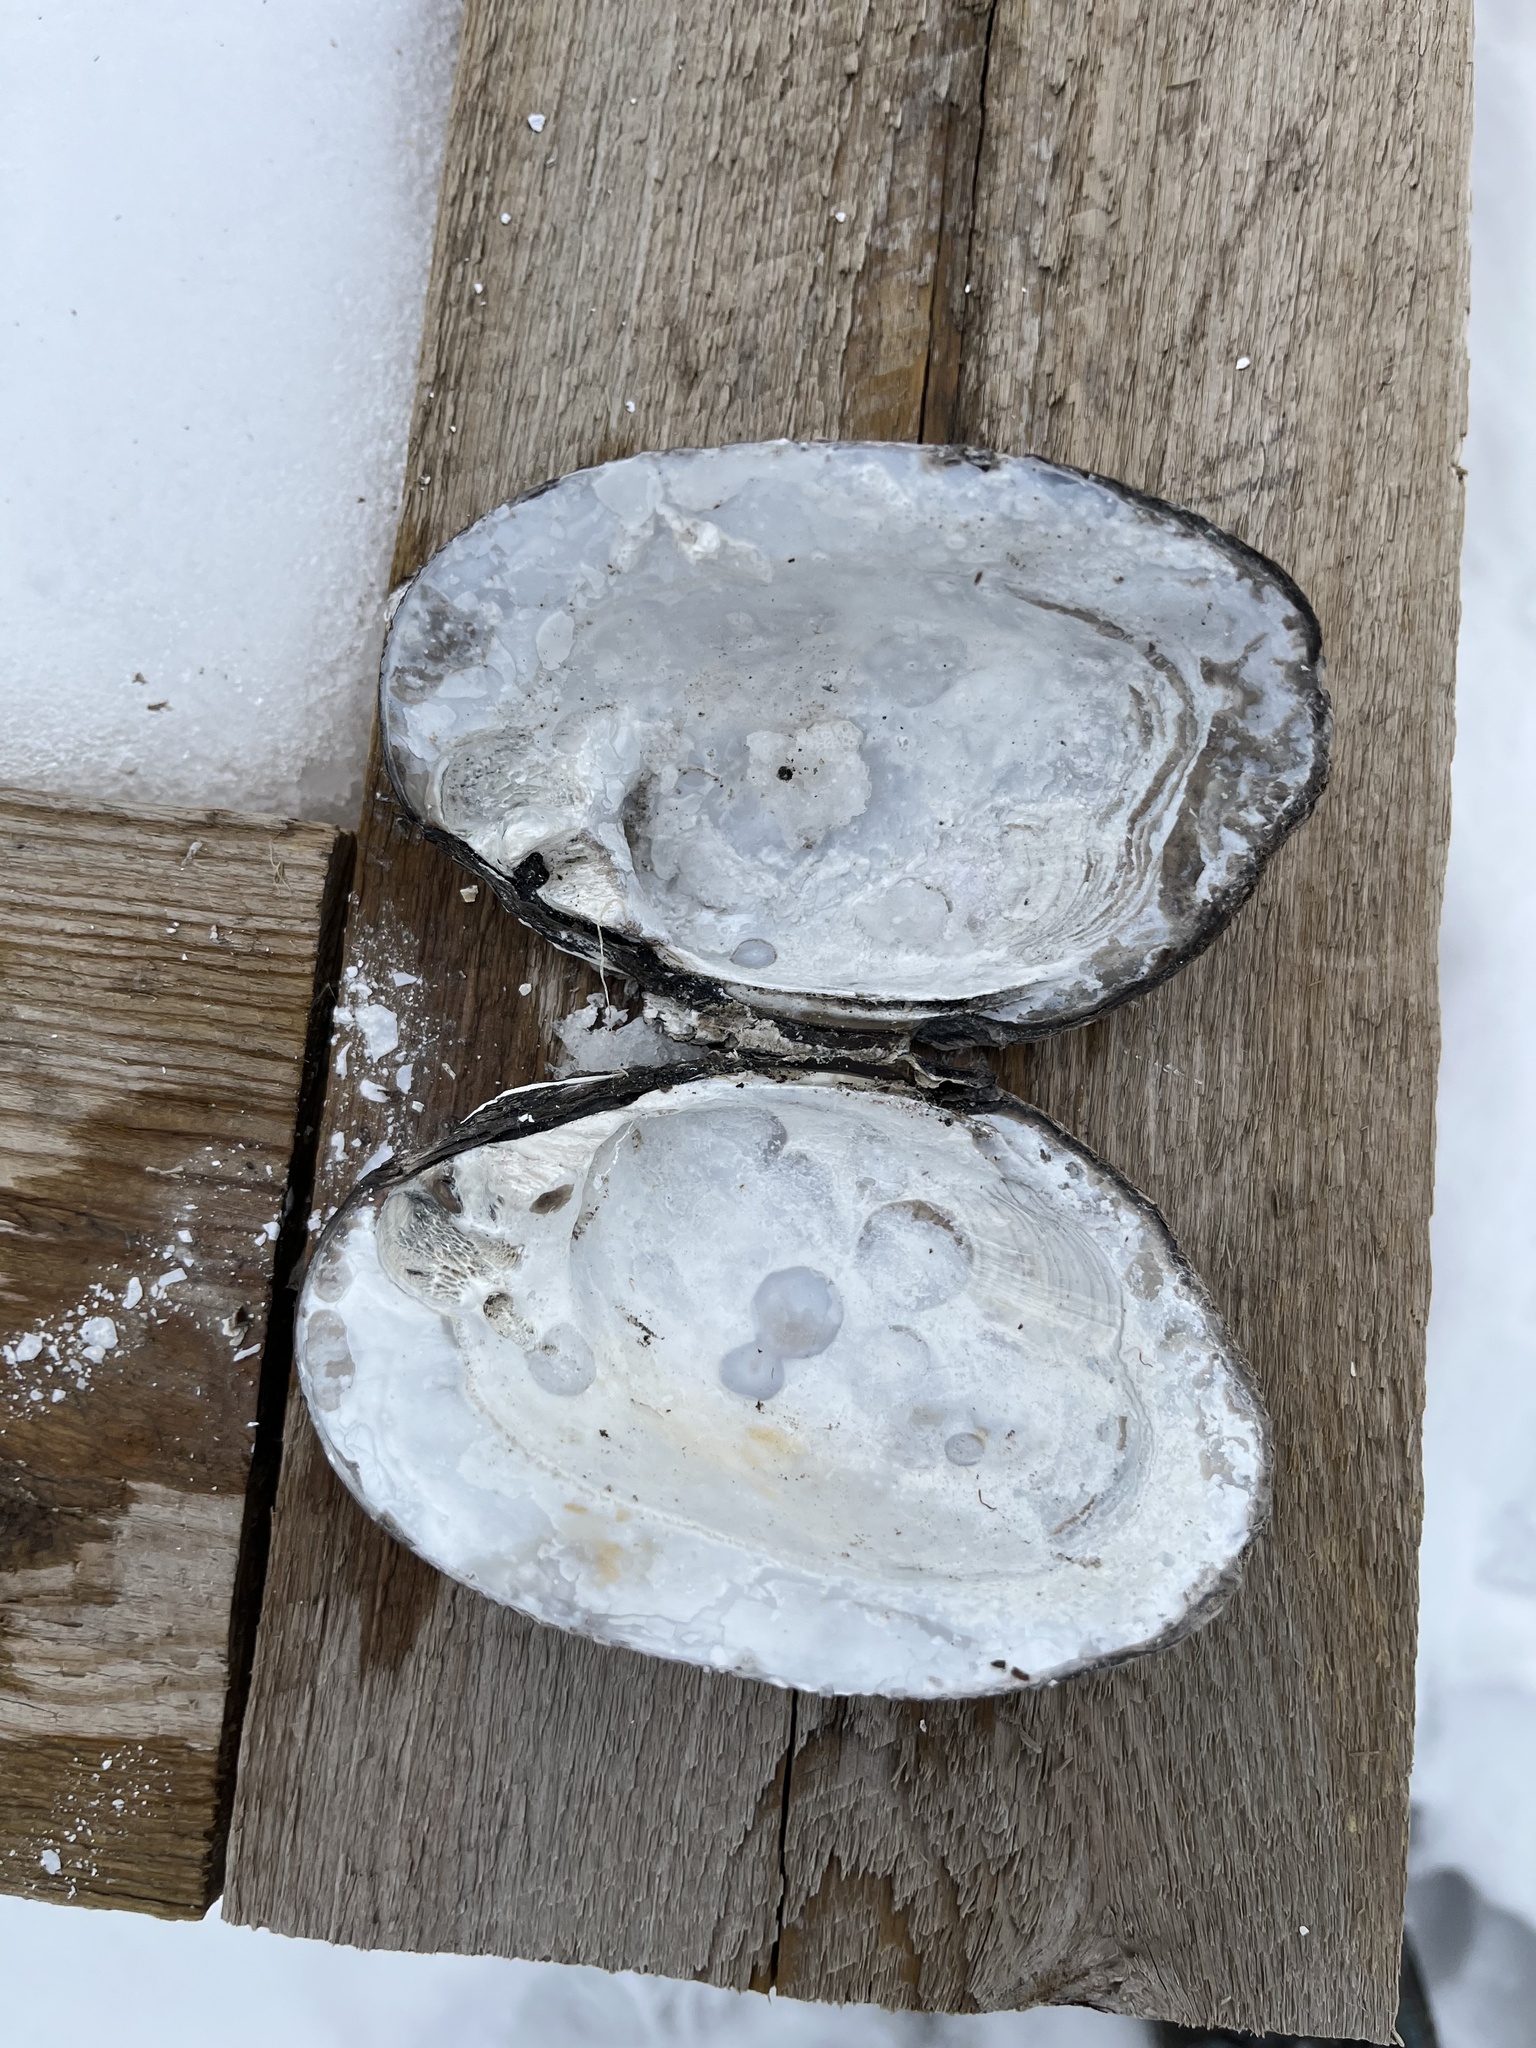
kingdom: Animalia
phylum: Mollusca
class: Bivalvia
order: Unionida
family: Unionidae
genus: Amblema
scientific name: Amblema plicata
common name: Threeridge
